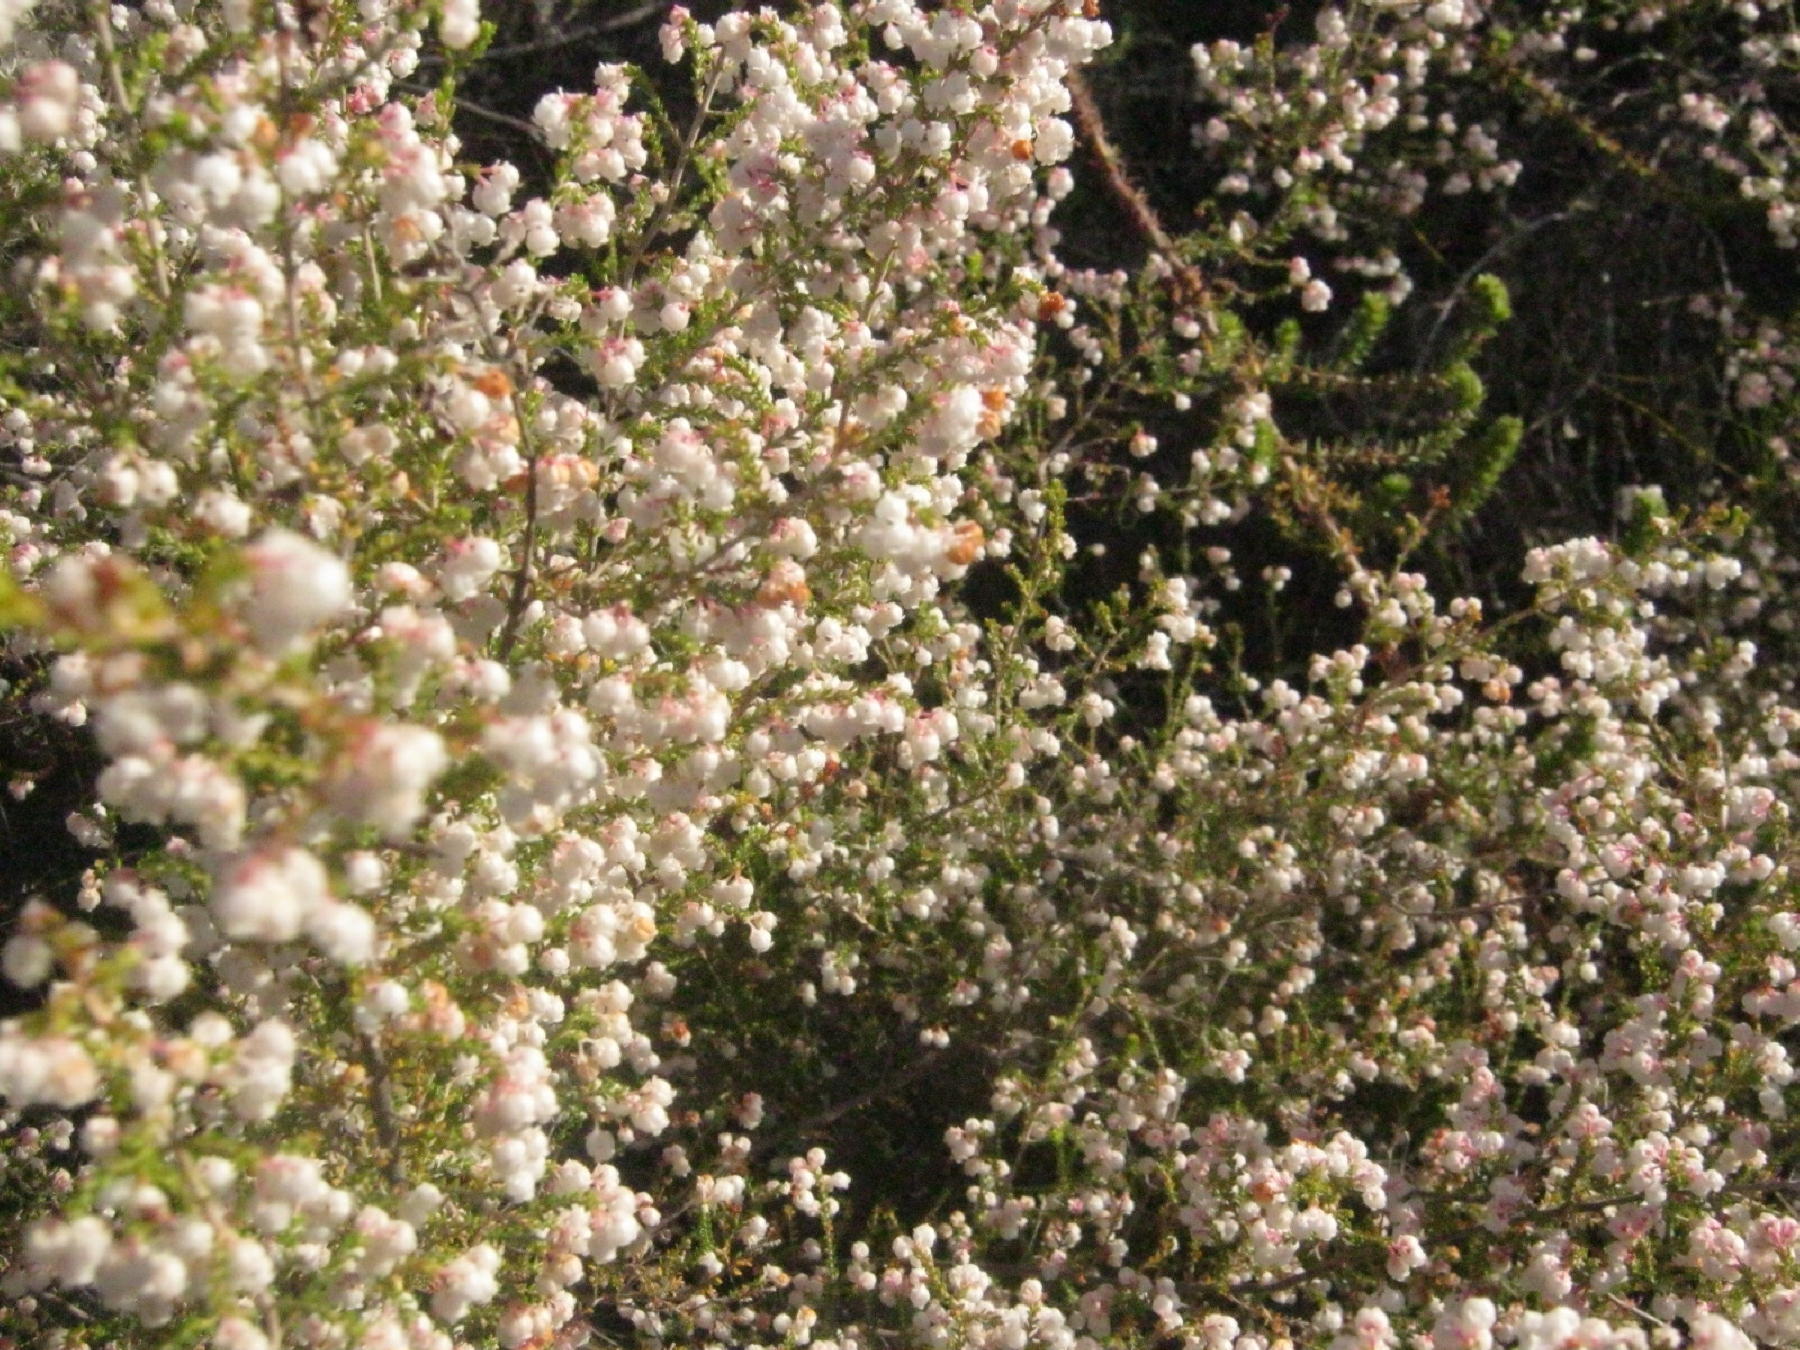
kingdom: Plantae
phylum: Tracheophyta
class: Magnoliopsida
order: Ericales
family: Ericaceae
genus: Erica
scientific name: Erica formosa
